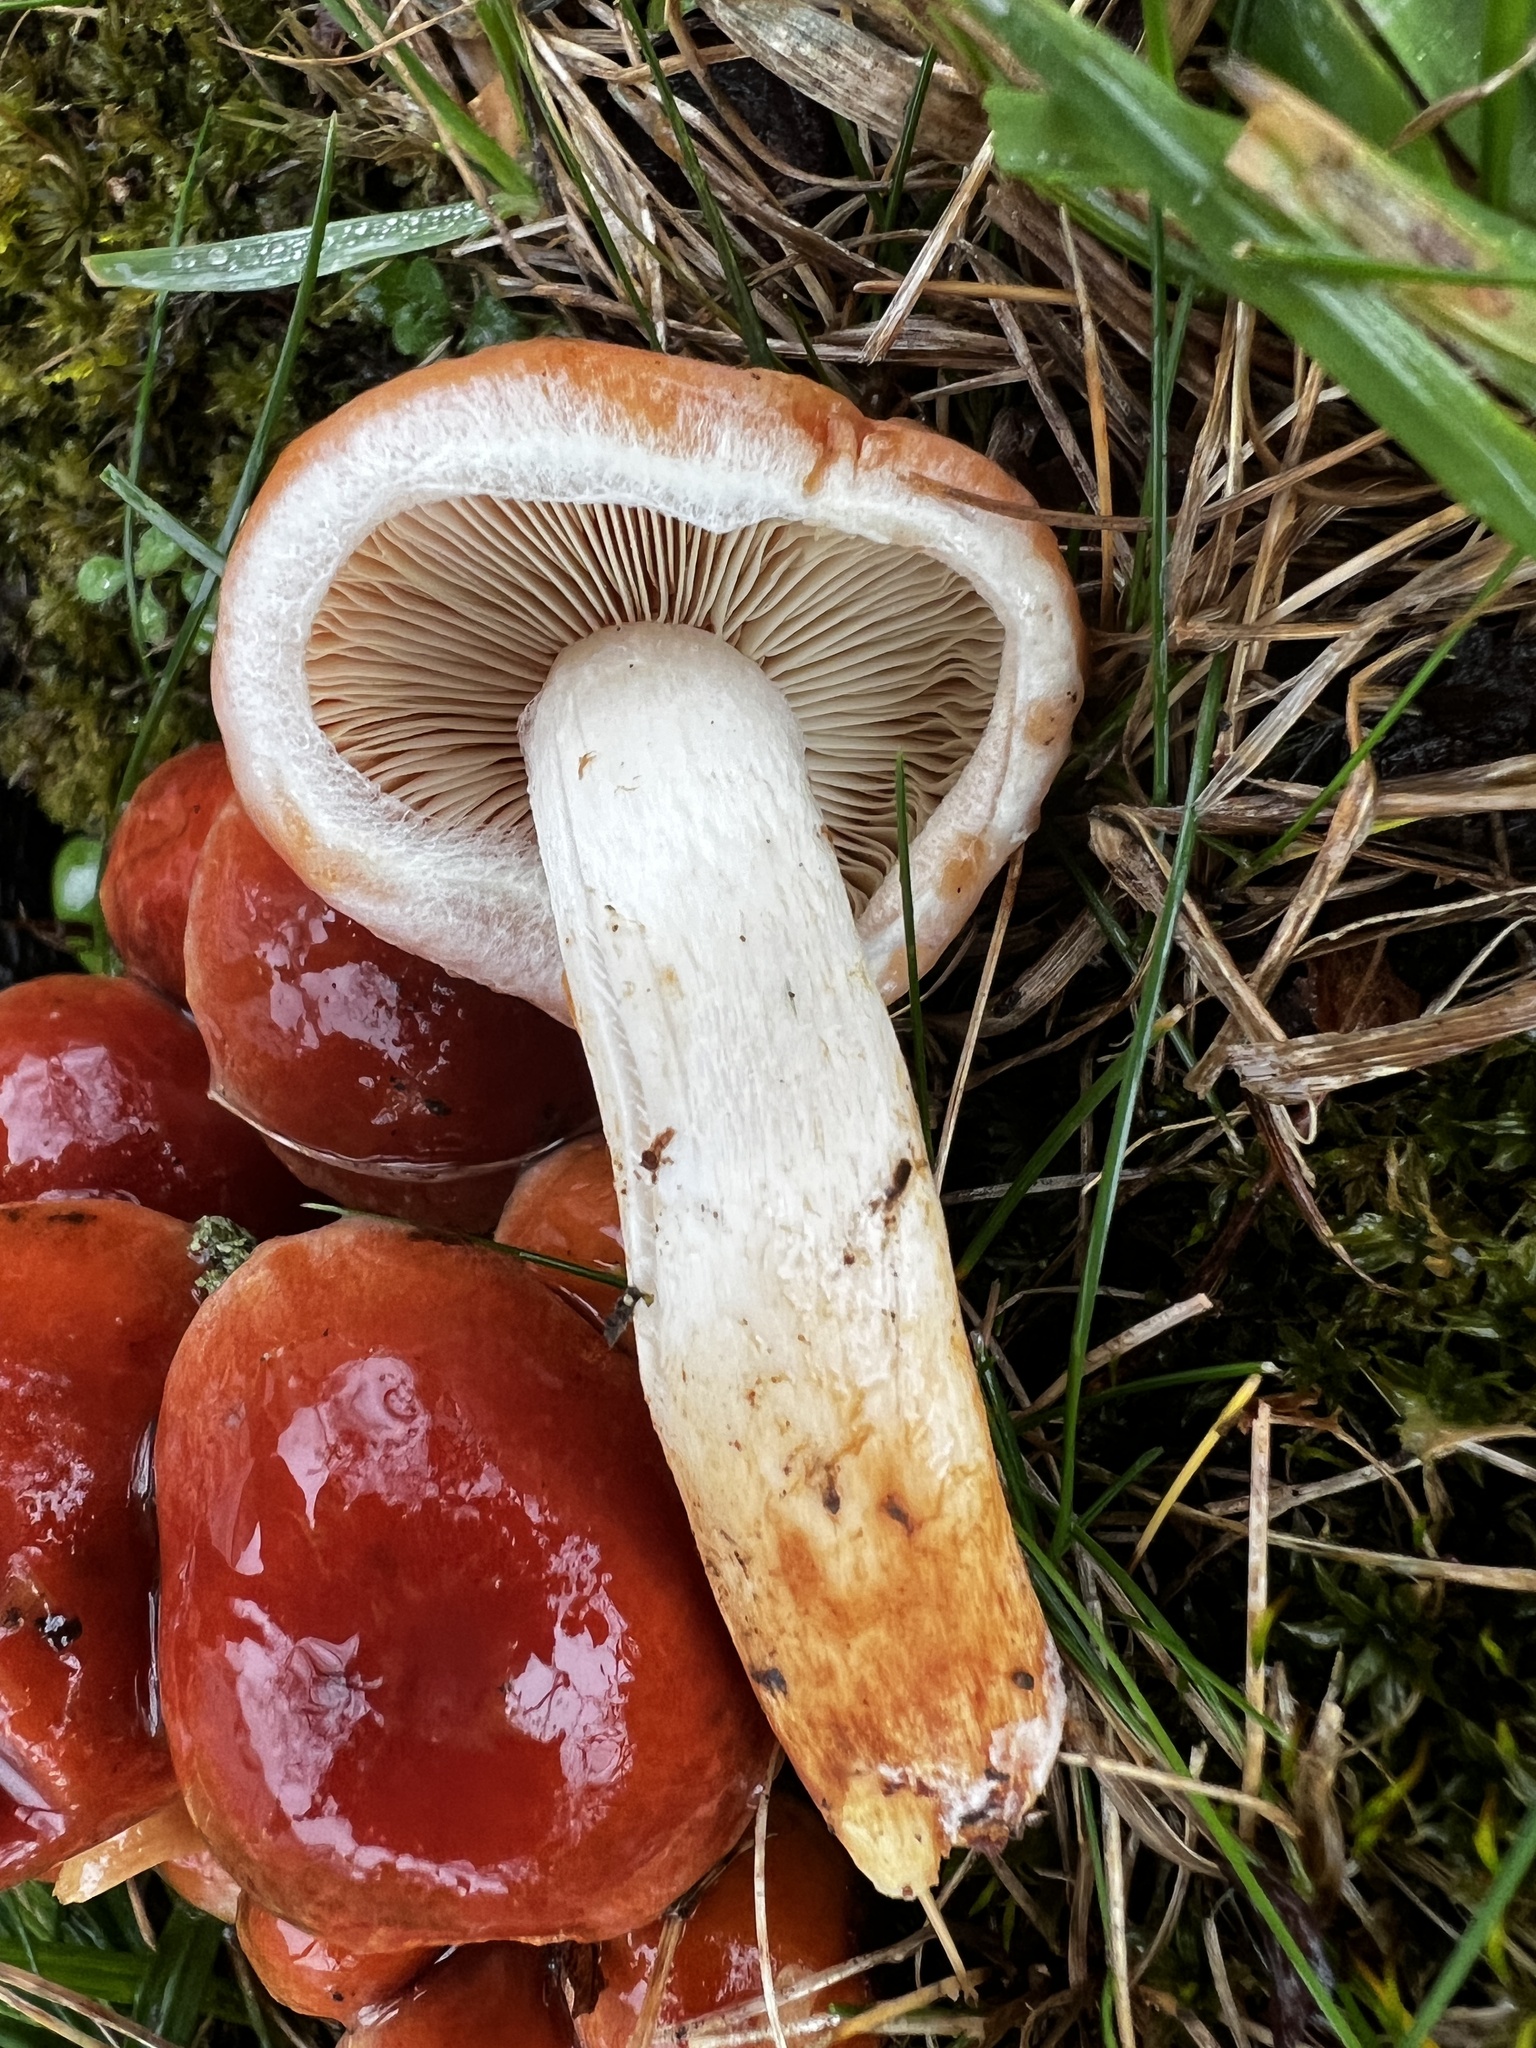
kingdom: Fungi
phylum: Basidiomycota
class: Agaricomycetes
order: Agaricales
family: Strophariaceae
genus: Hypholoma
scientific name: Hypholoma lateritium
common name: Brick caps
